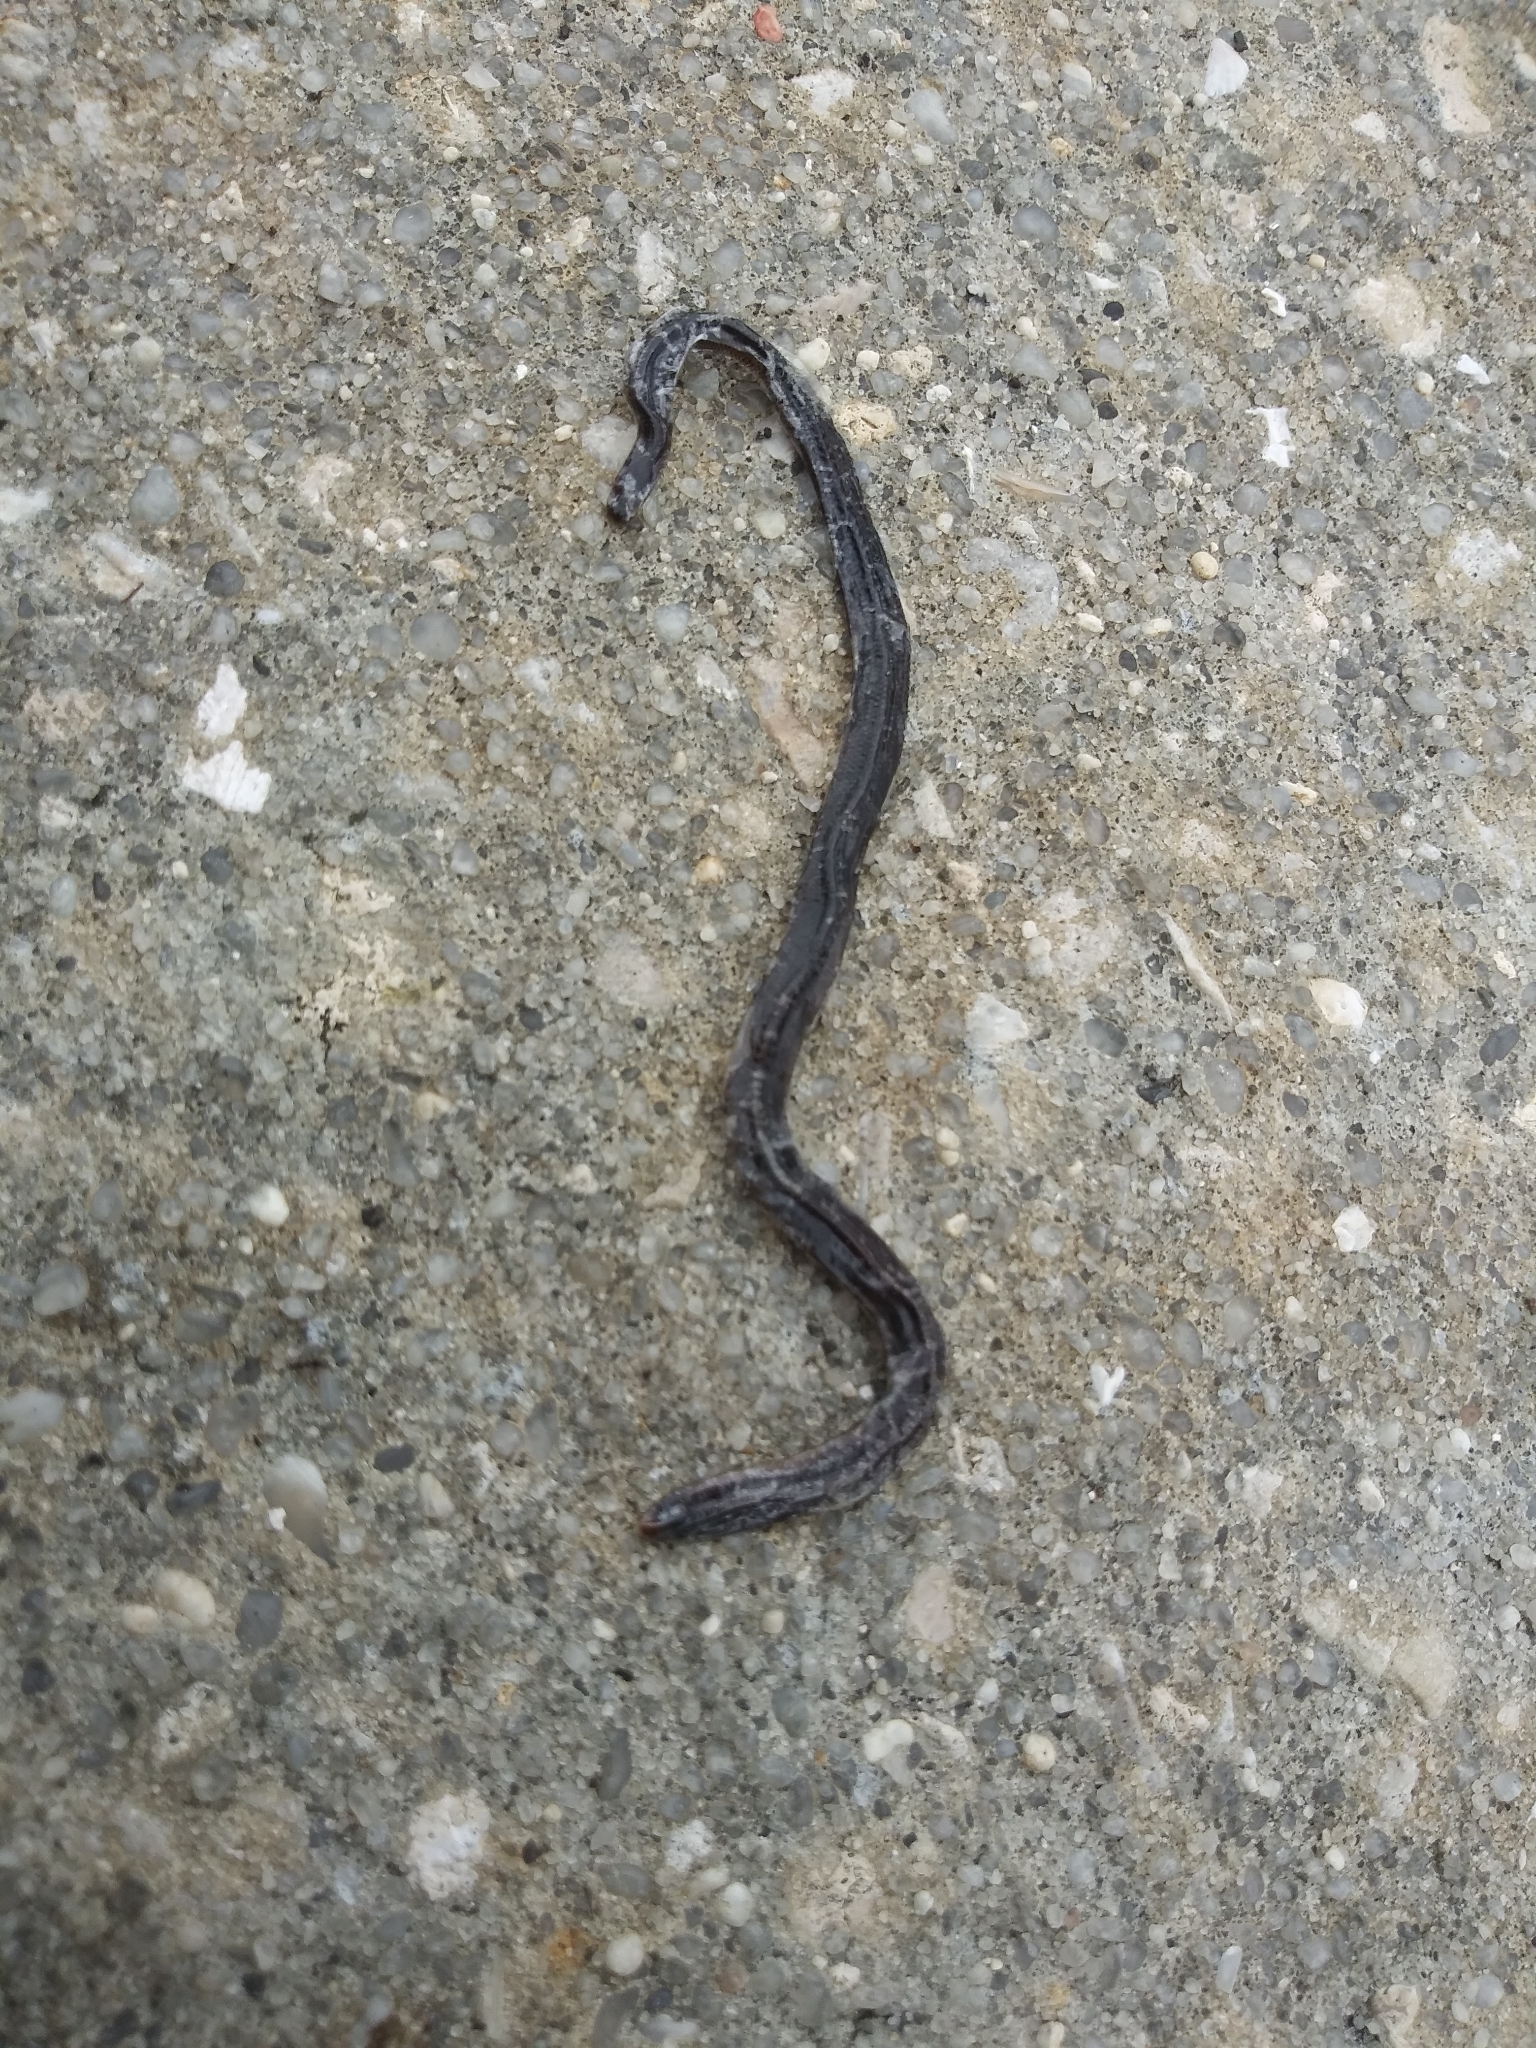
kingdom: Animalia
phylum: Chordata
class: Squamata
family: Typhlopidae
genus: Indotyphlops
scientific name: Indotyphlops braminus
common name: Brahminy blindsnake
